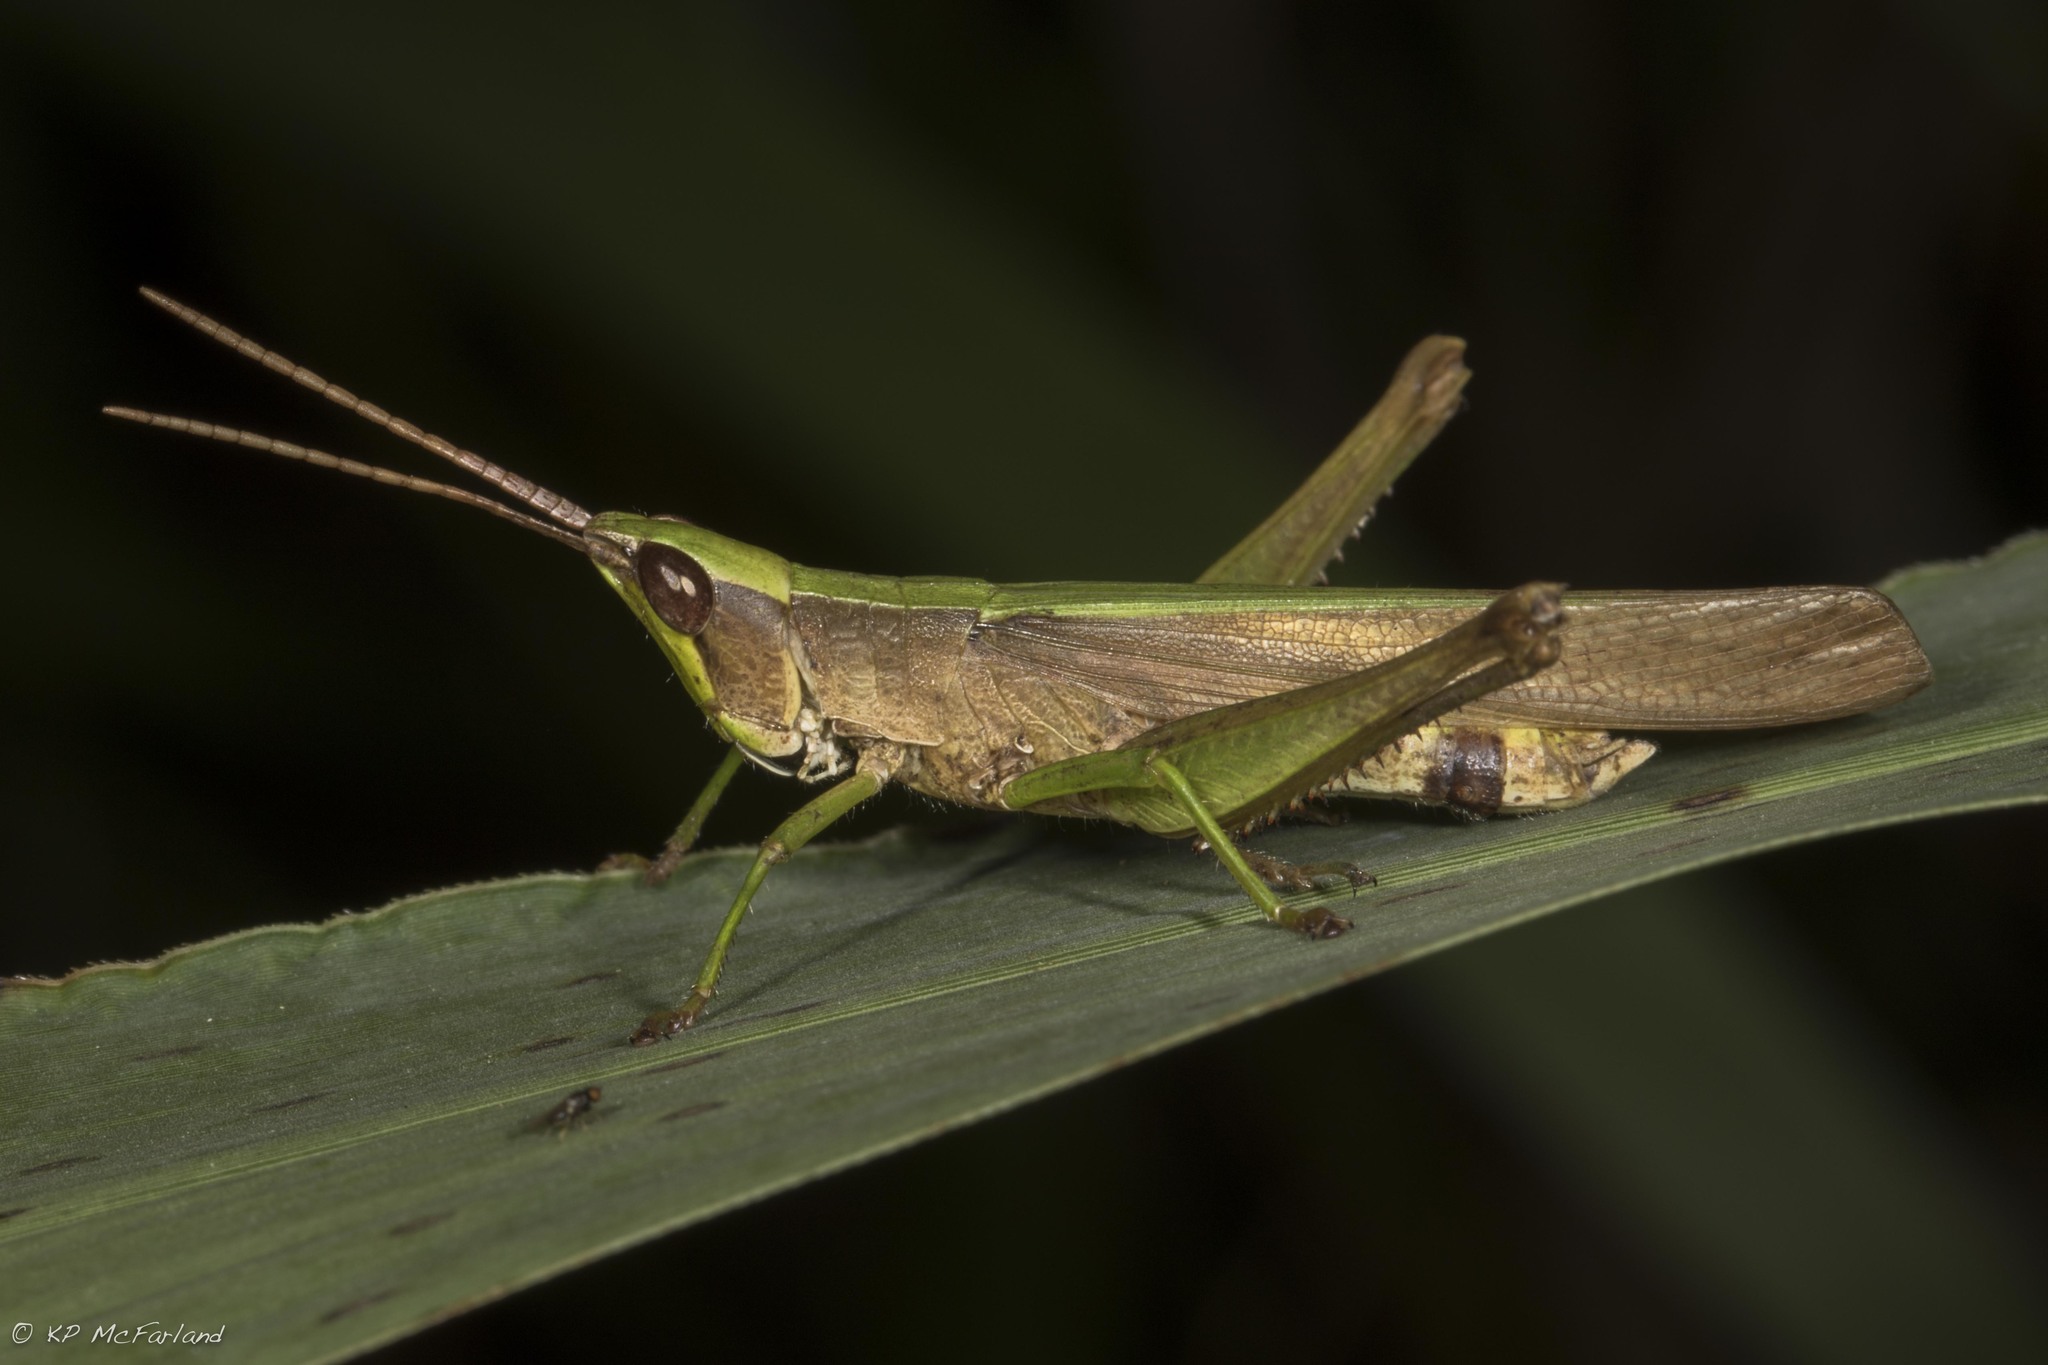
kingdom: Animalia
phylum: Arthropoda
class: Insecta
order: Orthoptera
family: Acrididae
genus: Metaleptea
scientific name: Metaleptea brevicornis
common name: Clipped-wing grasshopper
